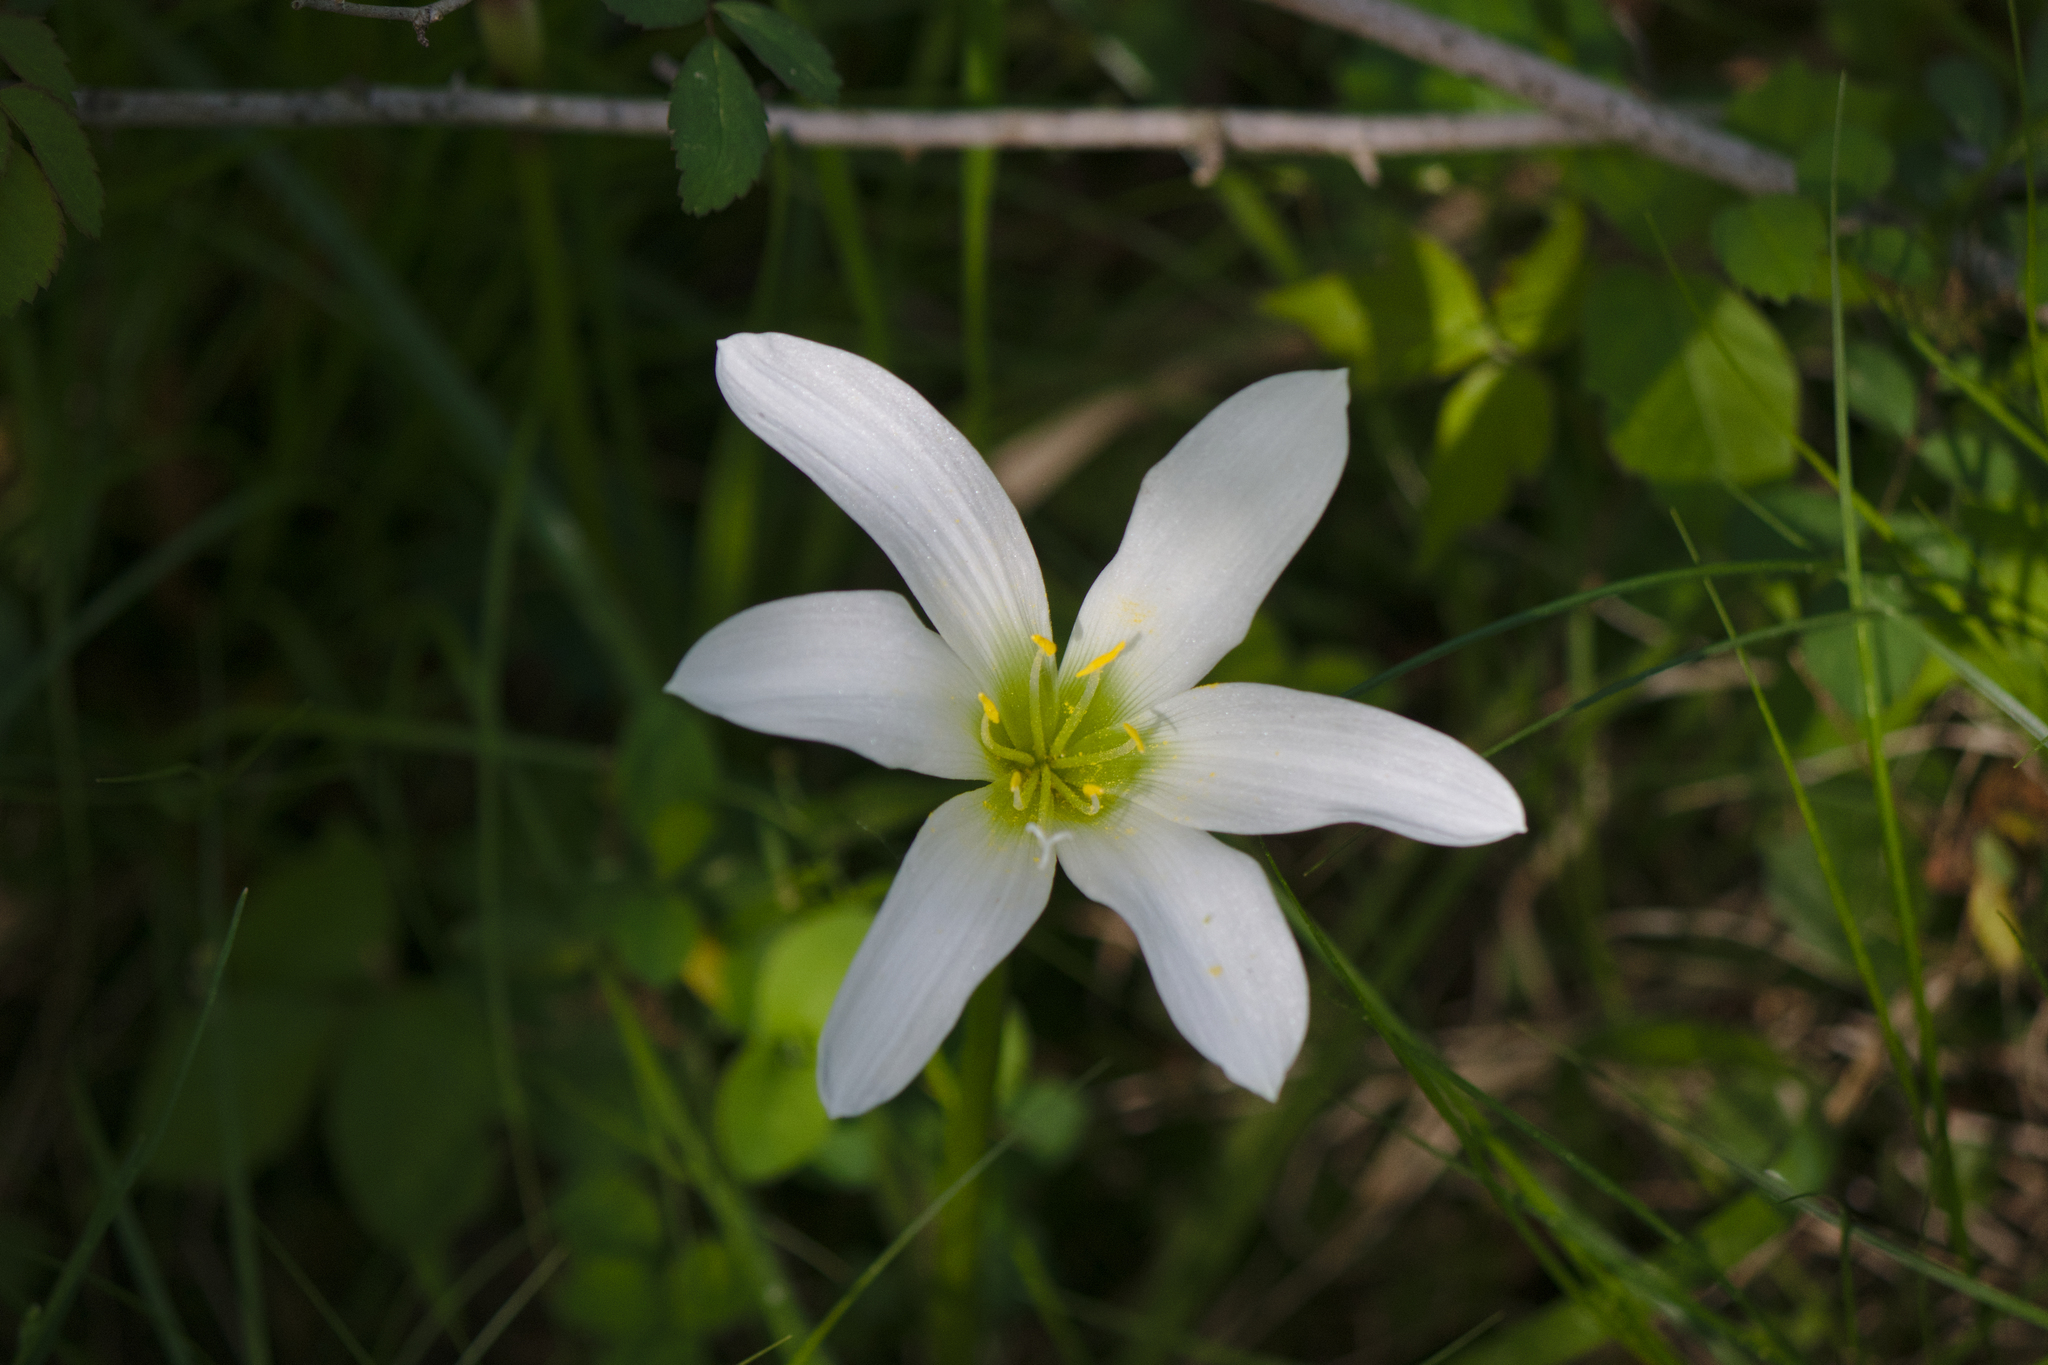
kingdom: Plantae
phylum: Tracheophyta
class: Liliopsida
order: Asparagales
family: Amaryllidaceae
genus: Zephyranthes
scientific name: Zephyranthes atamasco
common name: Atamasco lily
